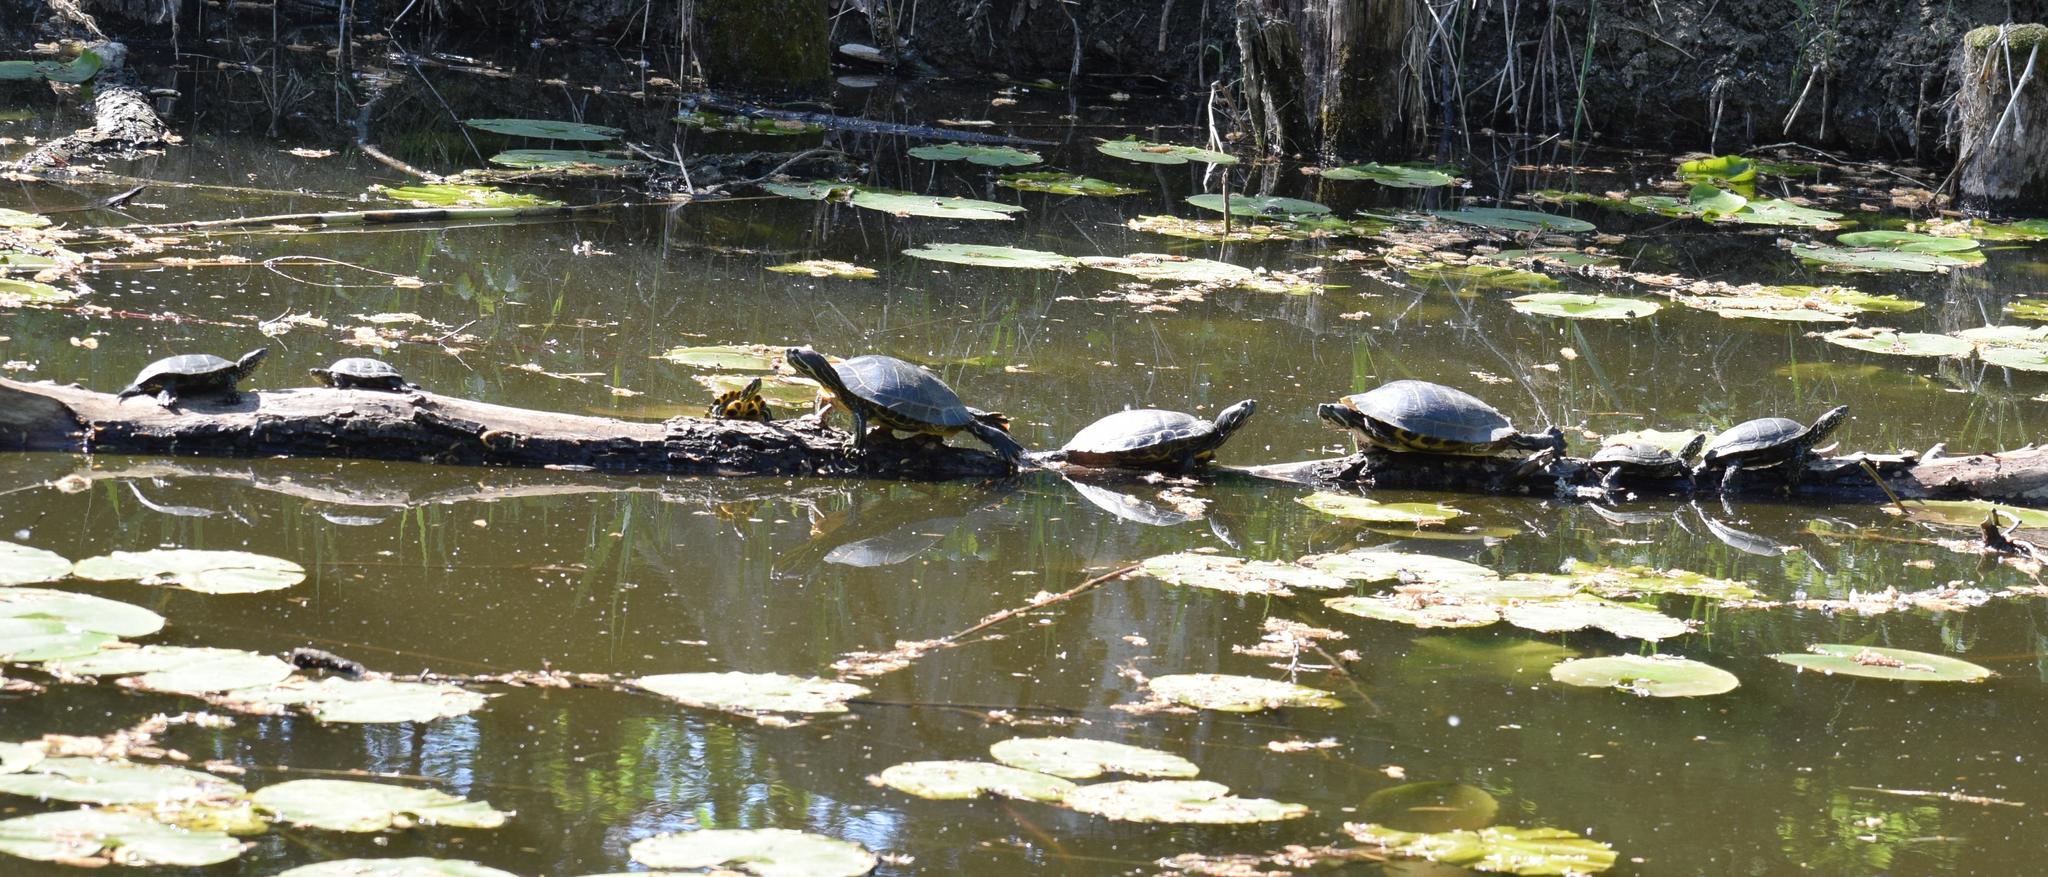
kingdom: Animalia
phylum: Chordata
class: Testudines
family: Emydidae
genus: Trachemys
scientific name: Trachemys scripta
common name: Slider
